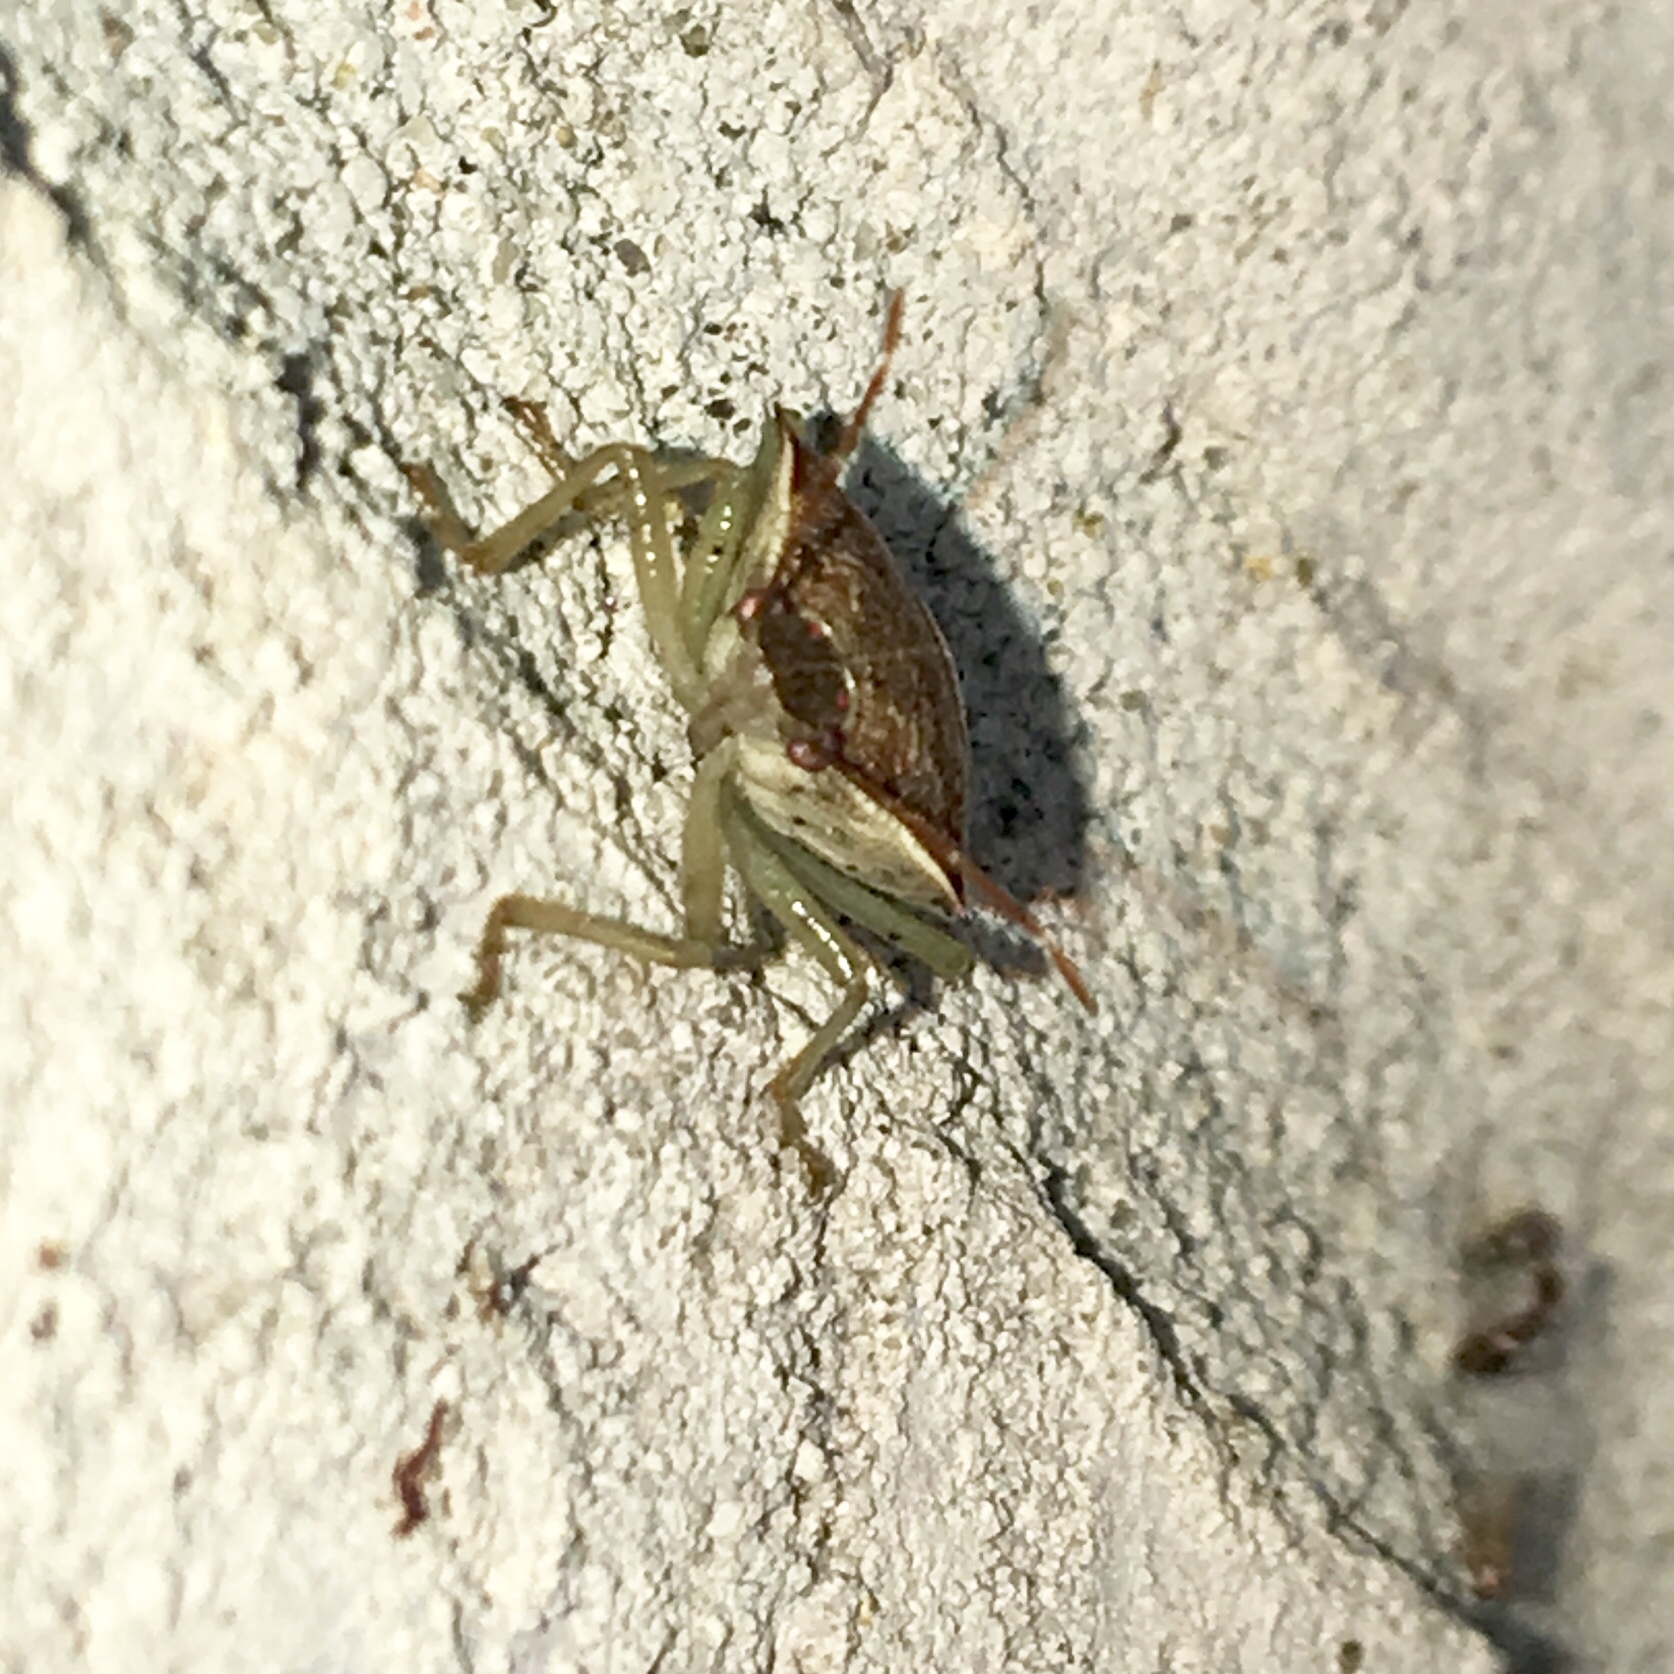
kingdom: Animalia
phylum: Arthropoda
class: Insecta
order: Hemiptera
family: Pentatomidae
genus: Podisus
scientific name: Podisus maculiventris
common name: Spined soldier bug
